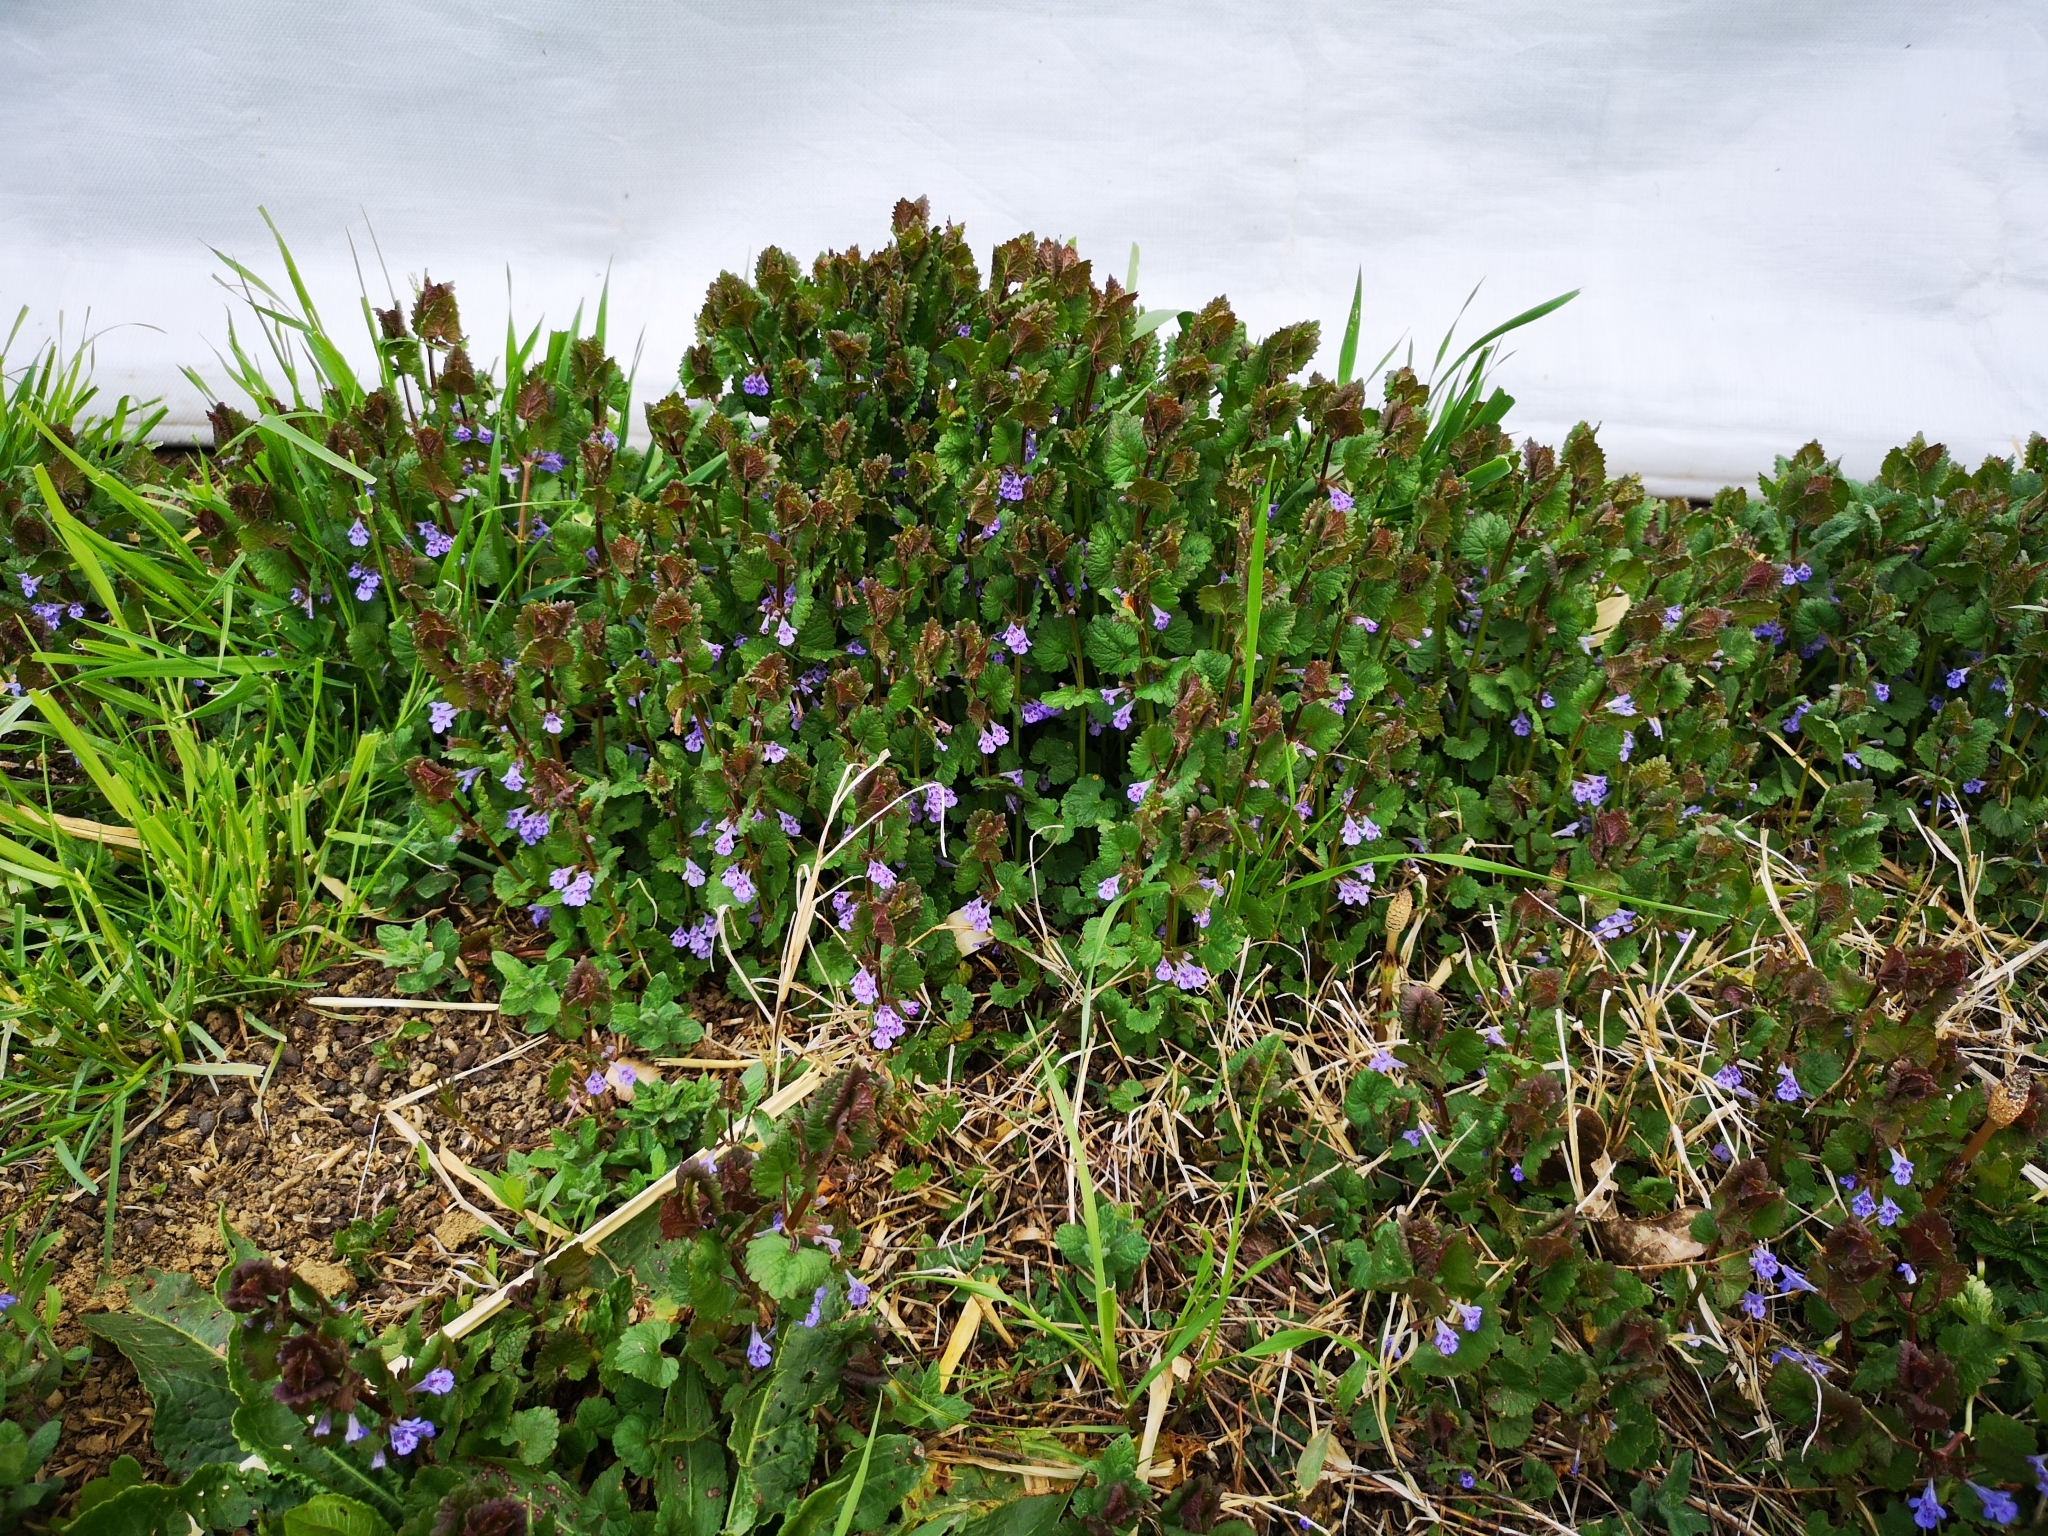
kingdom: Plantae
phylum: Tracheophyta
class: Magnoliopsida
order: Lamiales
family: Lamiaceae
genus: Glechoma
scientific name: Glechoma hederacea
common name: Ground ivy
